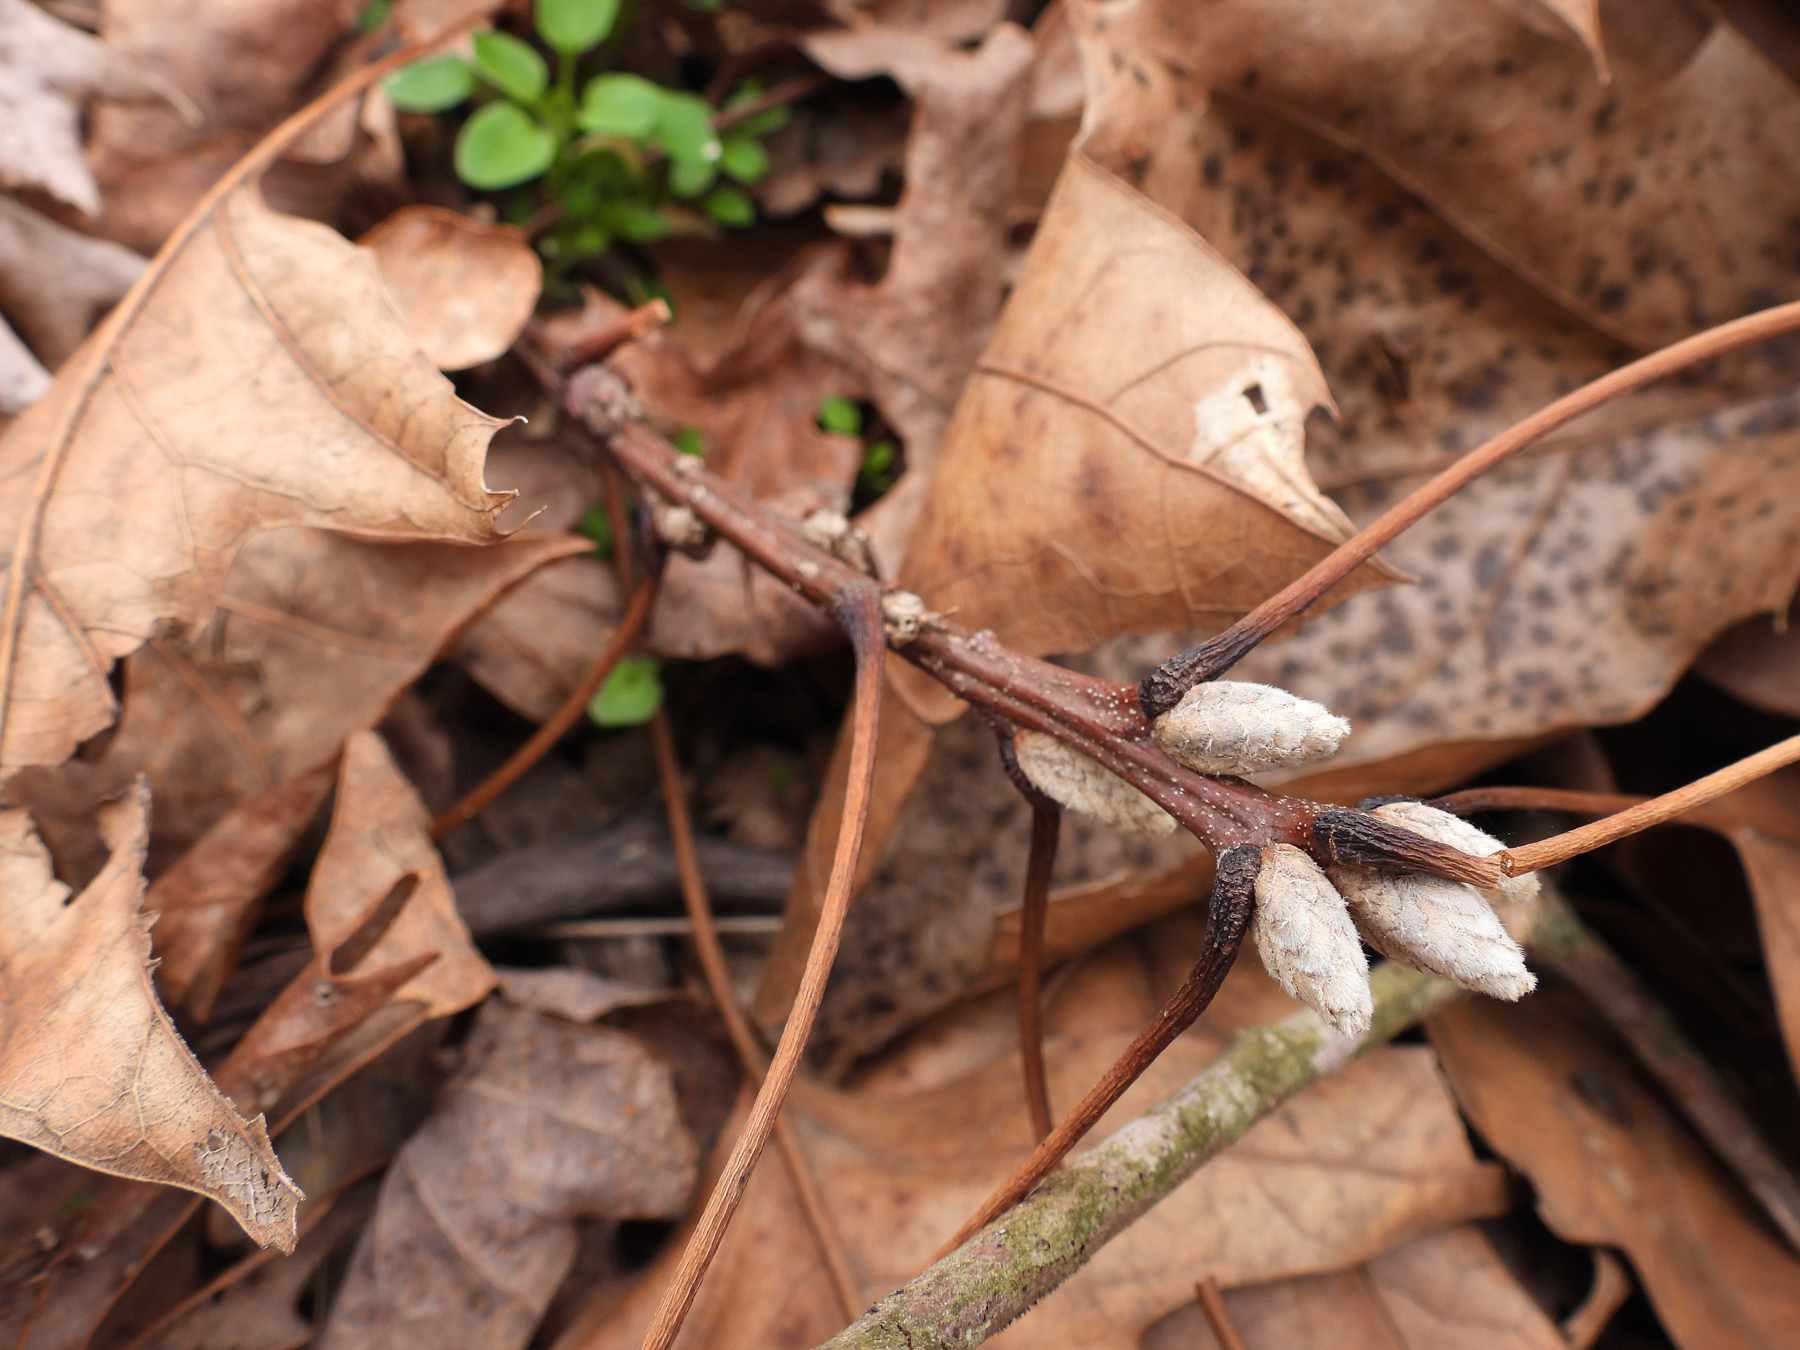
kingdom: Plantae
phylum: Tracheophyta
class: Magnoliopsida
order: Fagales
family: Fagaceae
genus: Quercus
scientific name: Quercus velutina
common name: Black oak
